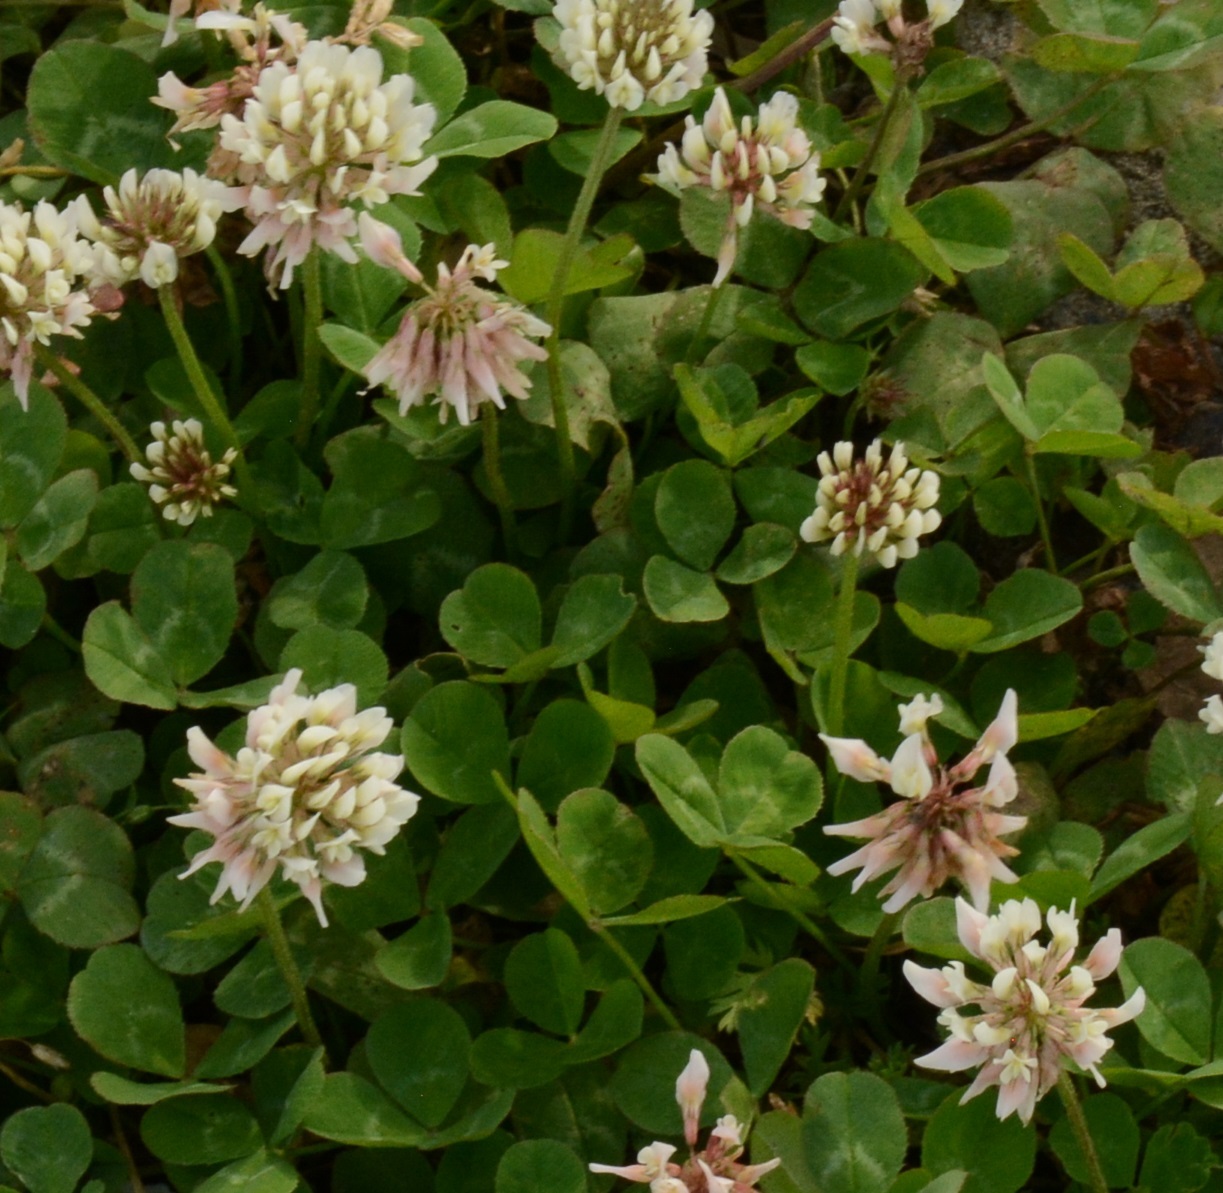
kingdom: Plantae
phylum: Tracheophyta
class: Magnoliopsida
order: Fabales
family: Fabaceae
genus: Trifolium
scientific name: Trifolium repens
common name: White clover
